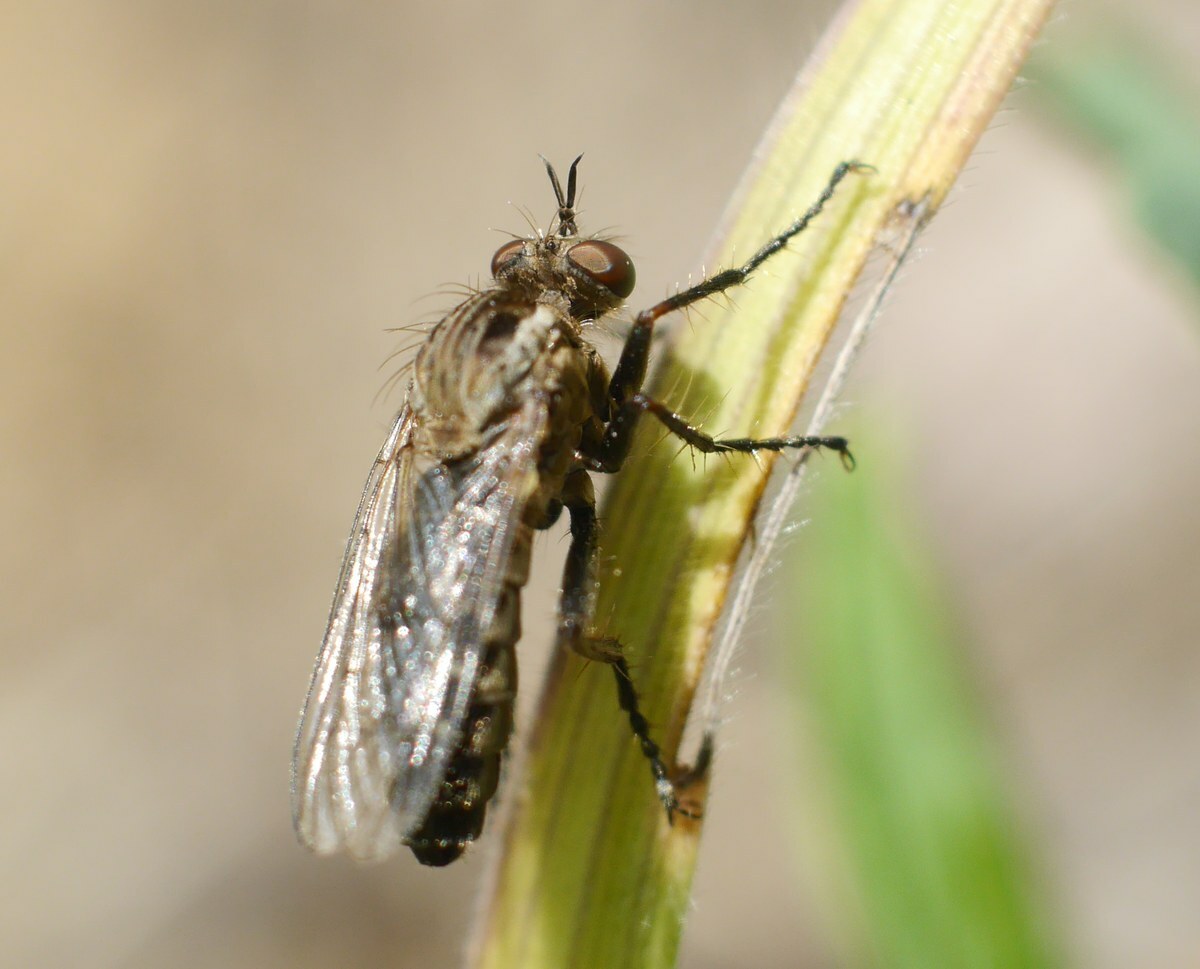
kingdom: Animalia
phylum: Arthropoda
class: Insecta
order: Diptera
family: Asilidae
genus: Paraphamartania
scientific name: Paraphamartania syriaca
